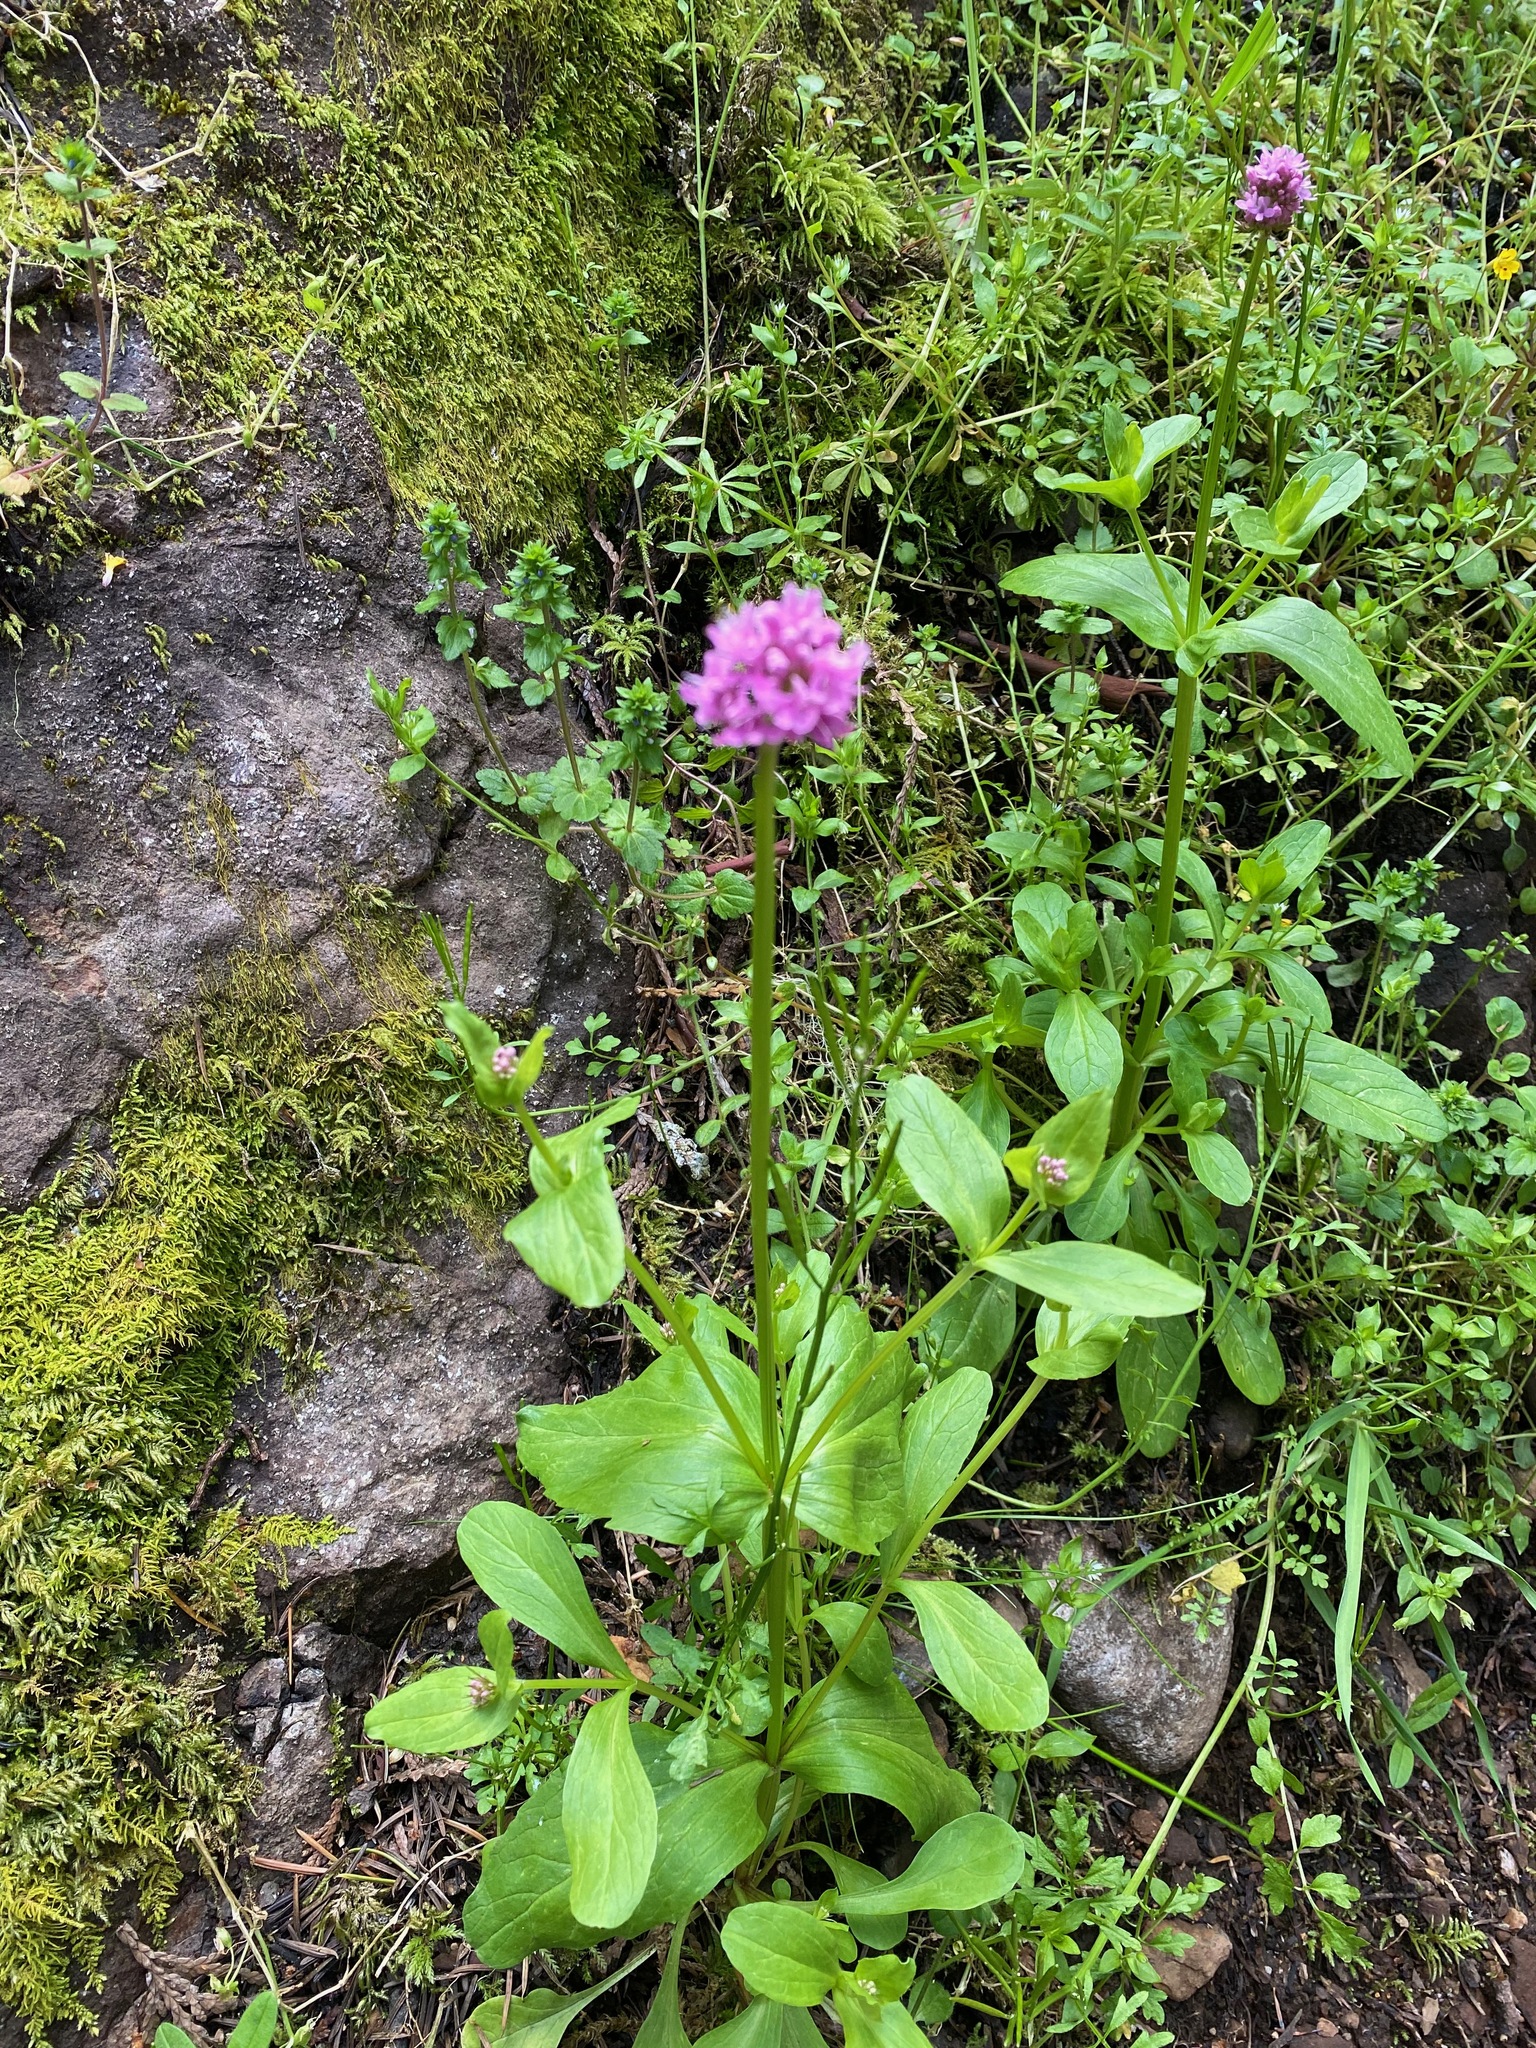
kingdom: Plantae
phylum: Tracheophyta
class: Magnoliopsida
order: Dipsacales
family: Caprifoliaceae
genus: Plectritis
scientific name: Plectritis congesta
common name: Pink plectritis
